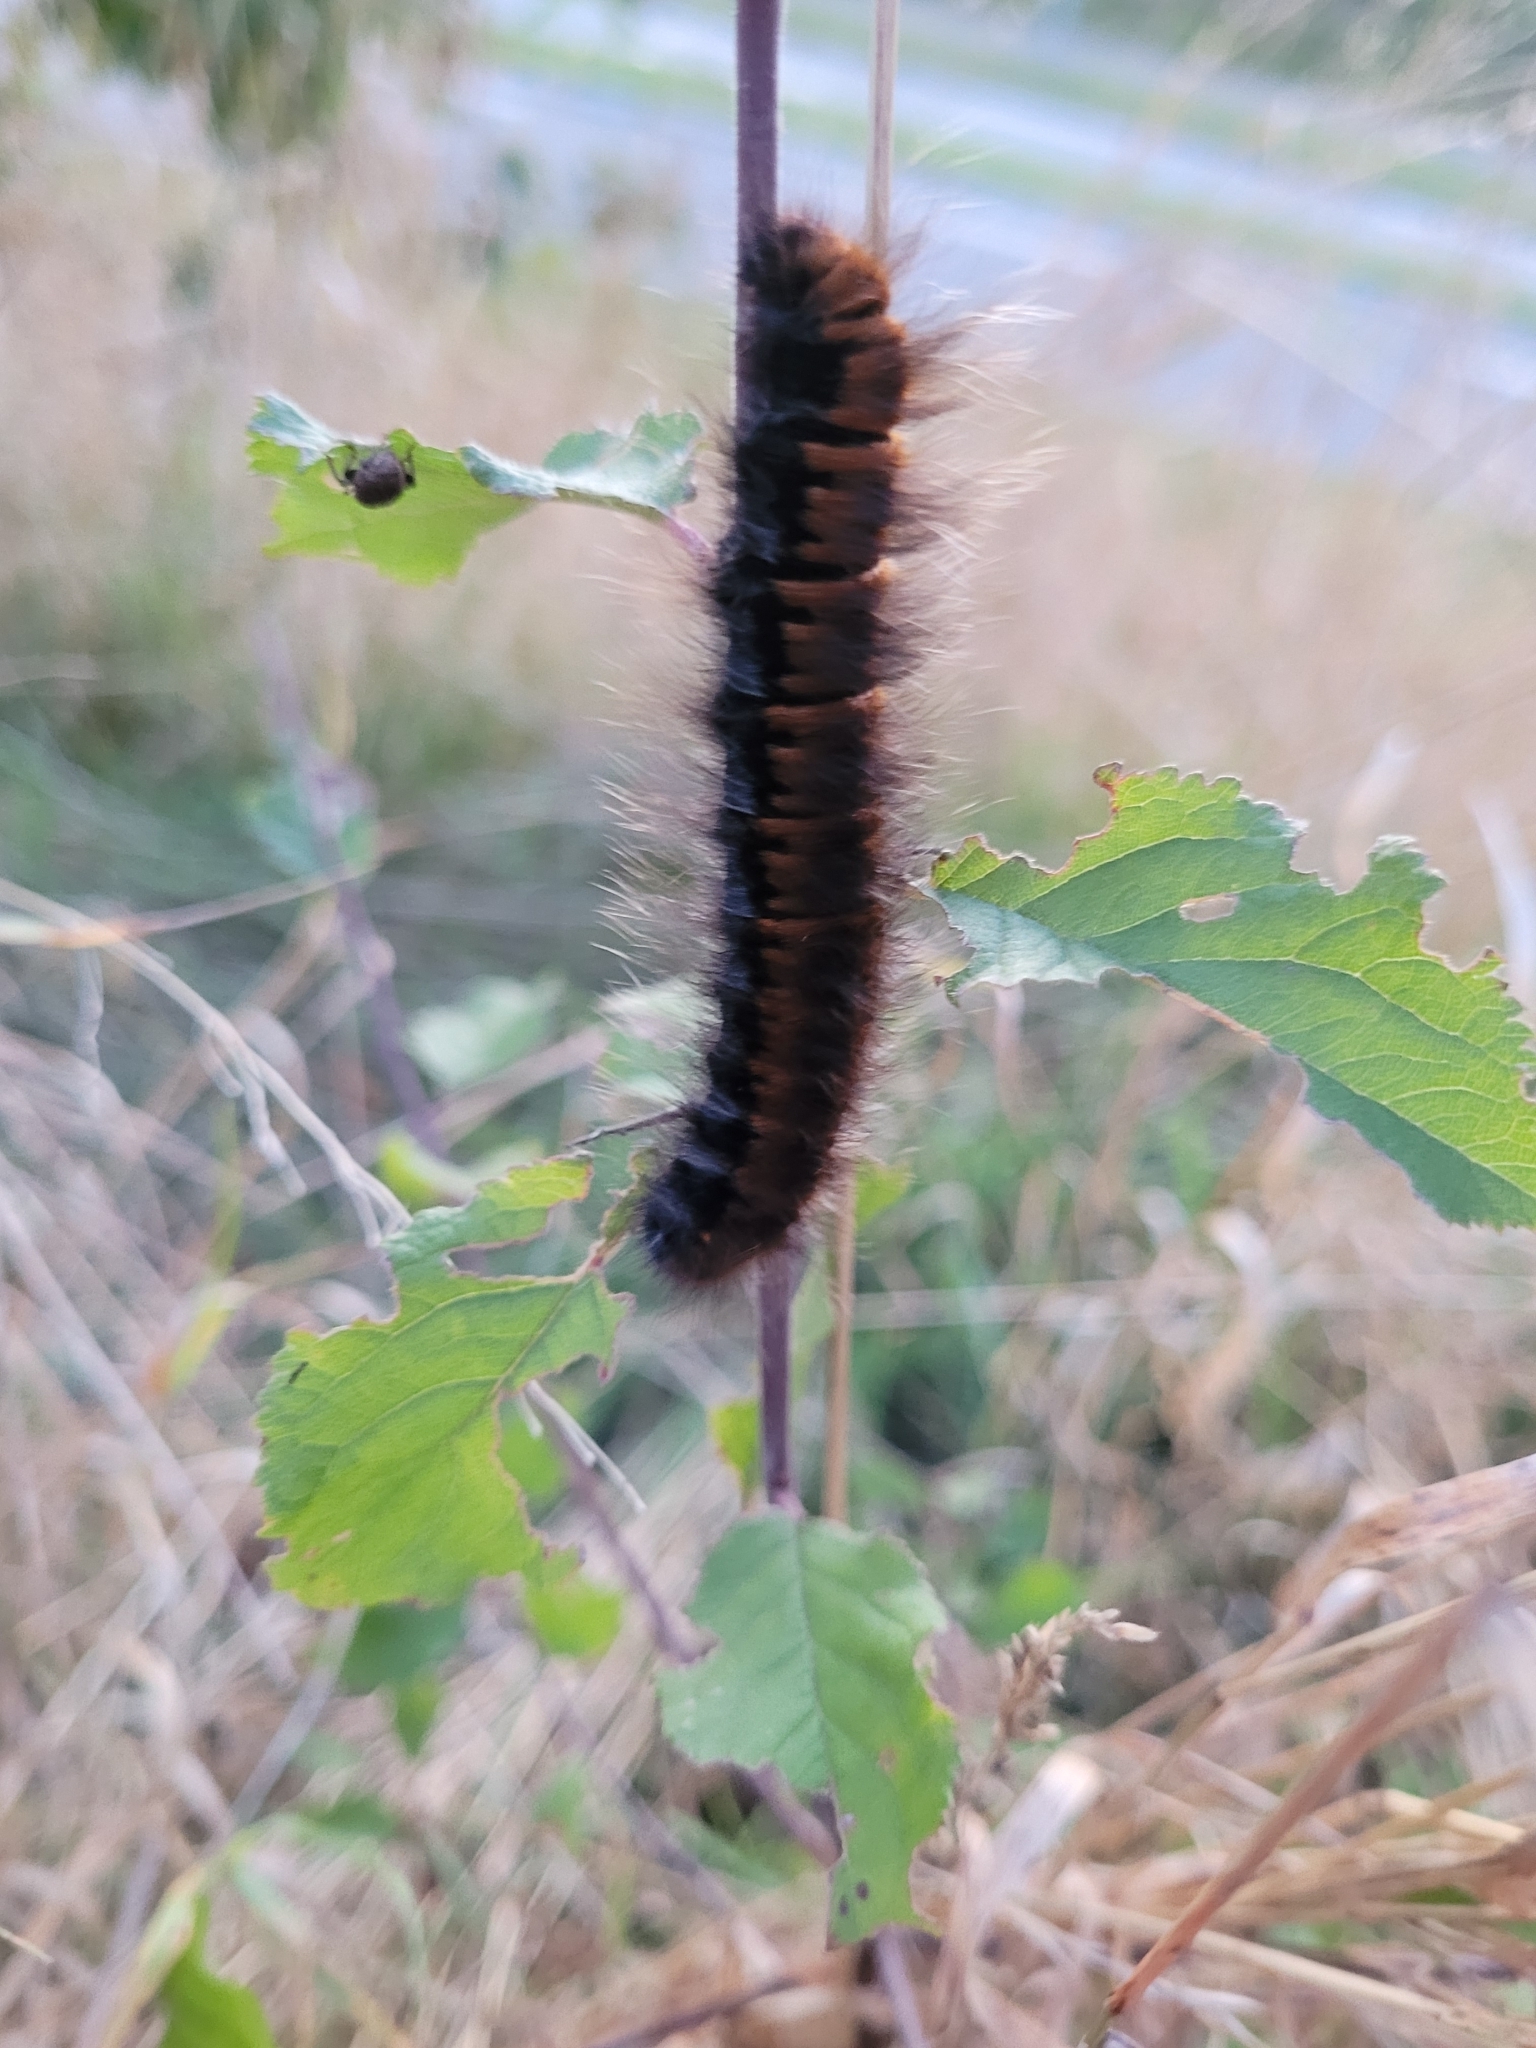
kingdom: Animalia
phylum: Arthropoda
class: Insecta
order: Lepidoptera
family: Lasiocampidae
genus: Macrothylacia
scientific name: Macrothylacia rubi
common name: Fox moth
